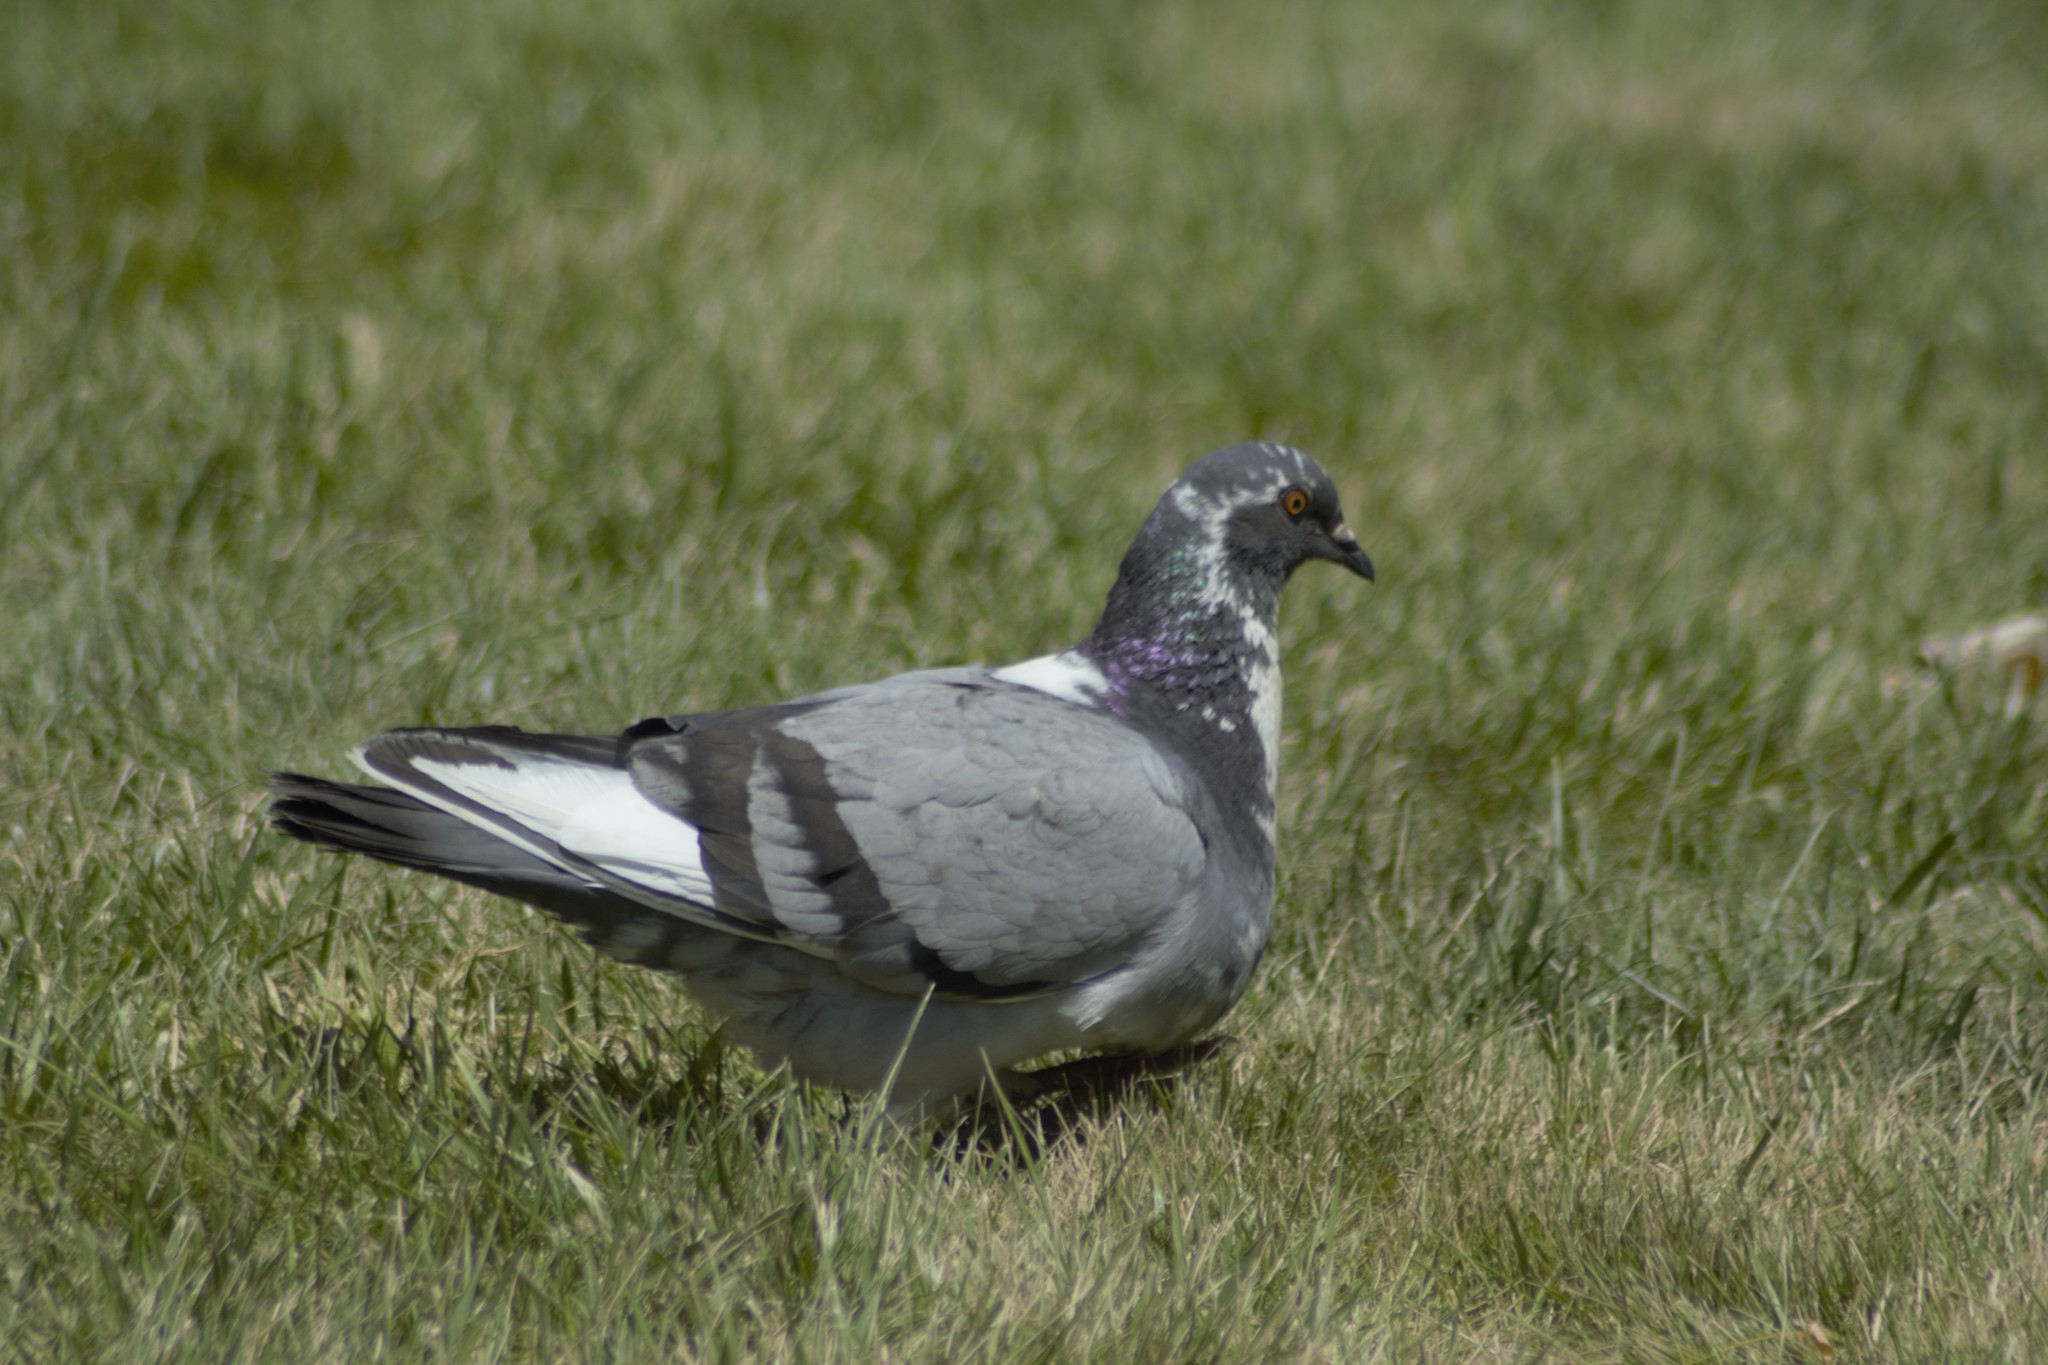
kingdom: Animalia
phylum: Chordata
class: Aves
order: Columbiformes
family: Columbidae
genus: Columba
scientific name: Columba livia
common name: Rock pigeon
